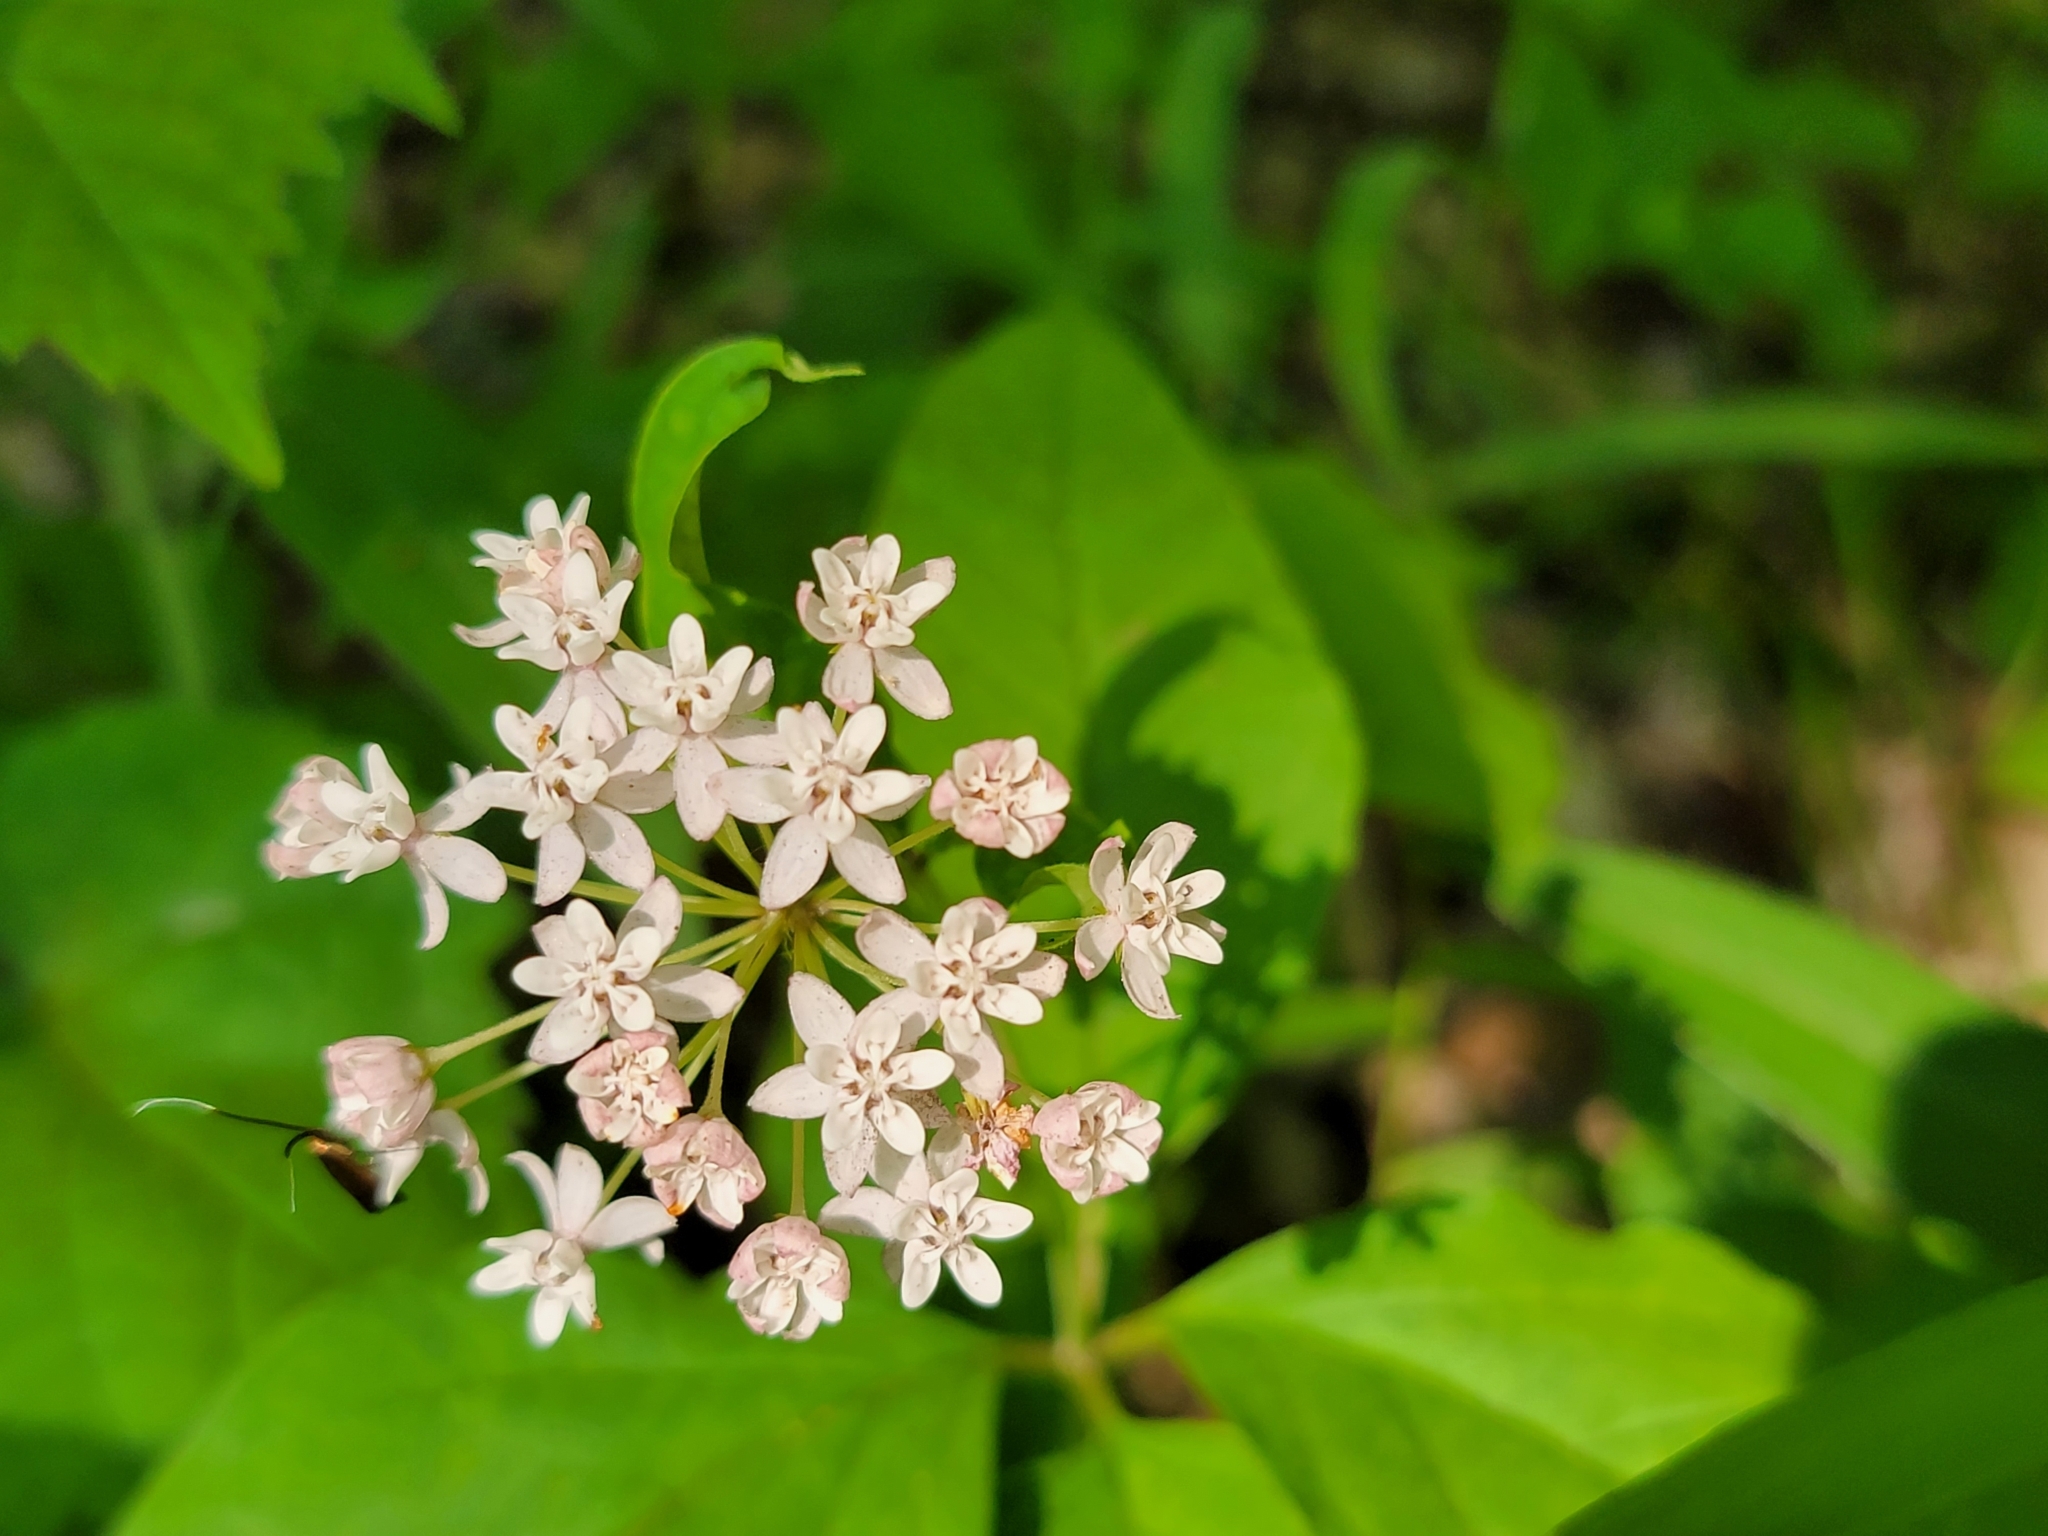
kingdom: Plantae
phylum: Tracheophyta
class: Magnoliopsida
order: Gentianales
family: Apocynaceae
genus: Asclepias
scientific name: Asclepias quadrifolia
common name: Whorled milkweed
